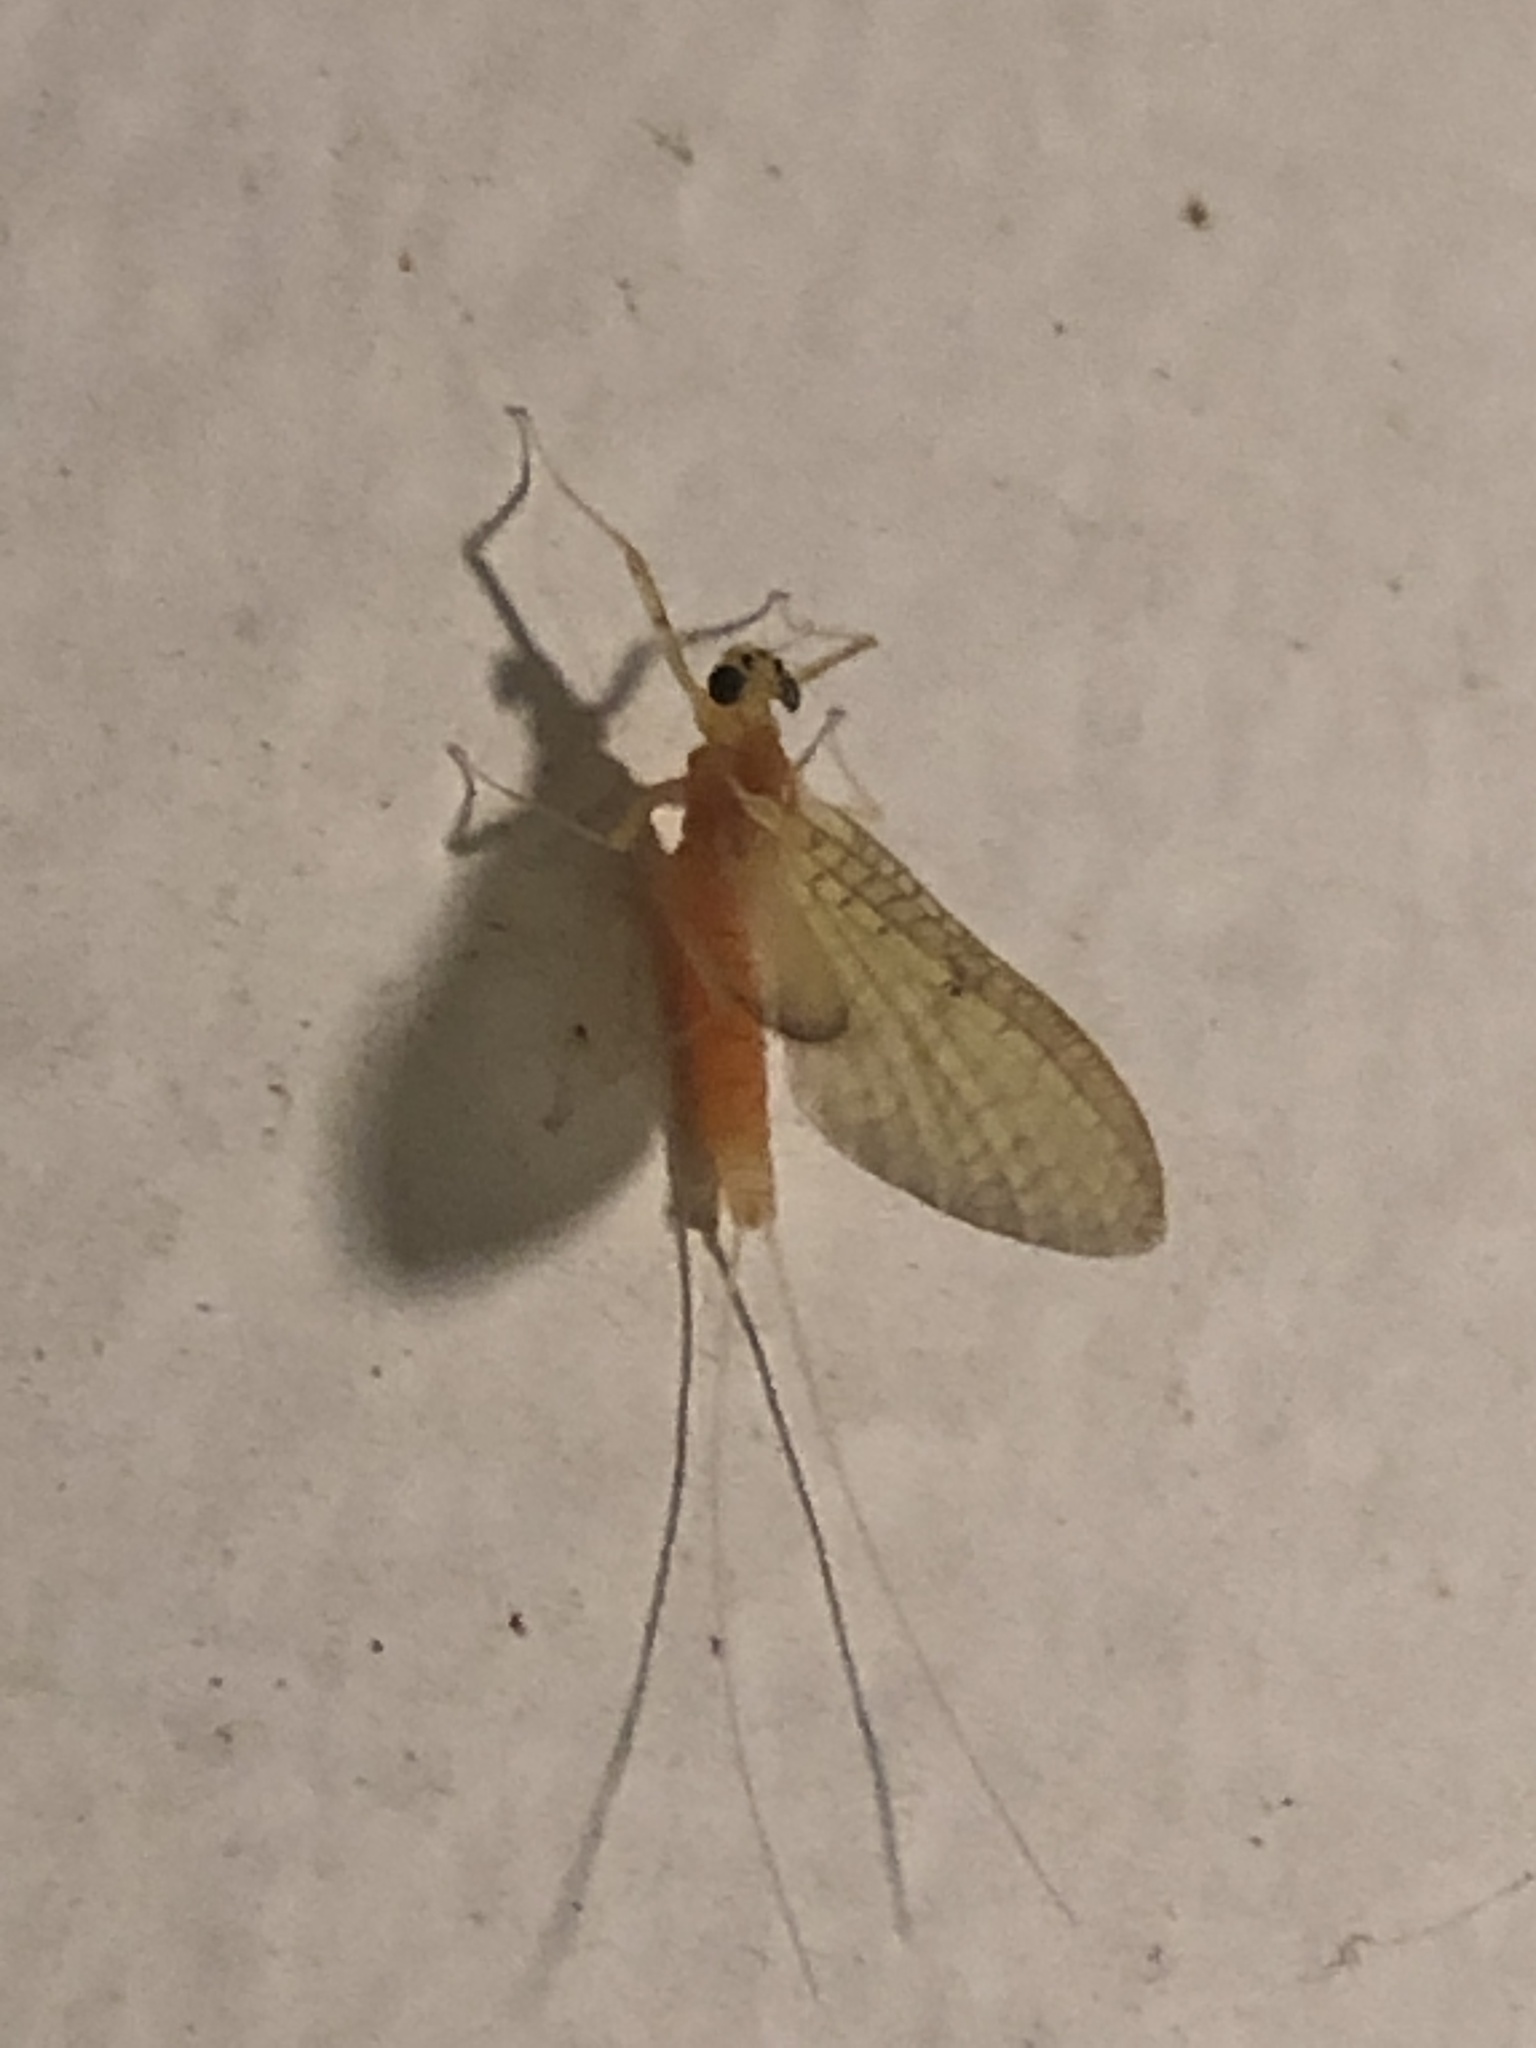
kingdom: Animalia
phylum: Arthropoda
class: Insecta
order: Ephemeroptera
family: Heptageniidae
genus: Stenacron
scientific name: Stenacron interpunctatum
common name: Orange cahill
